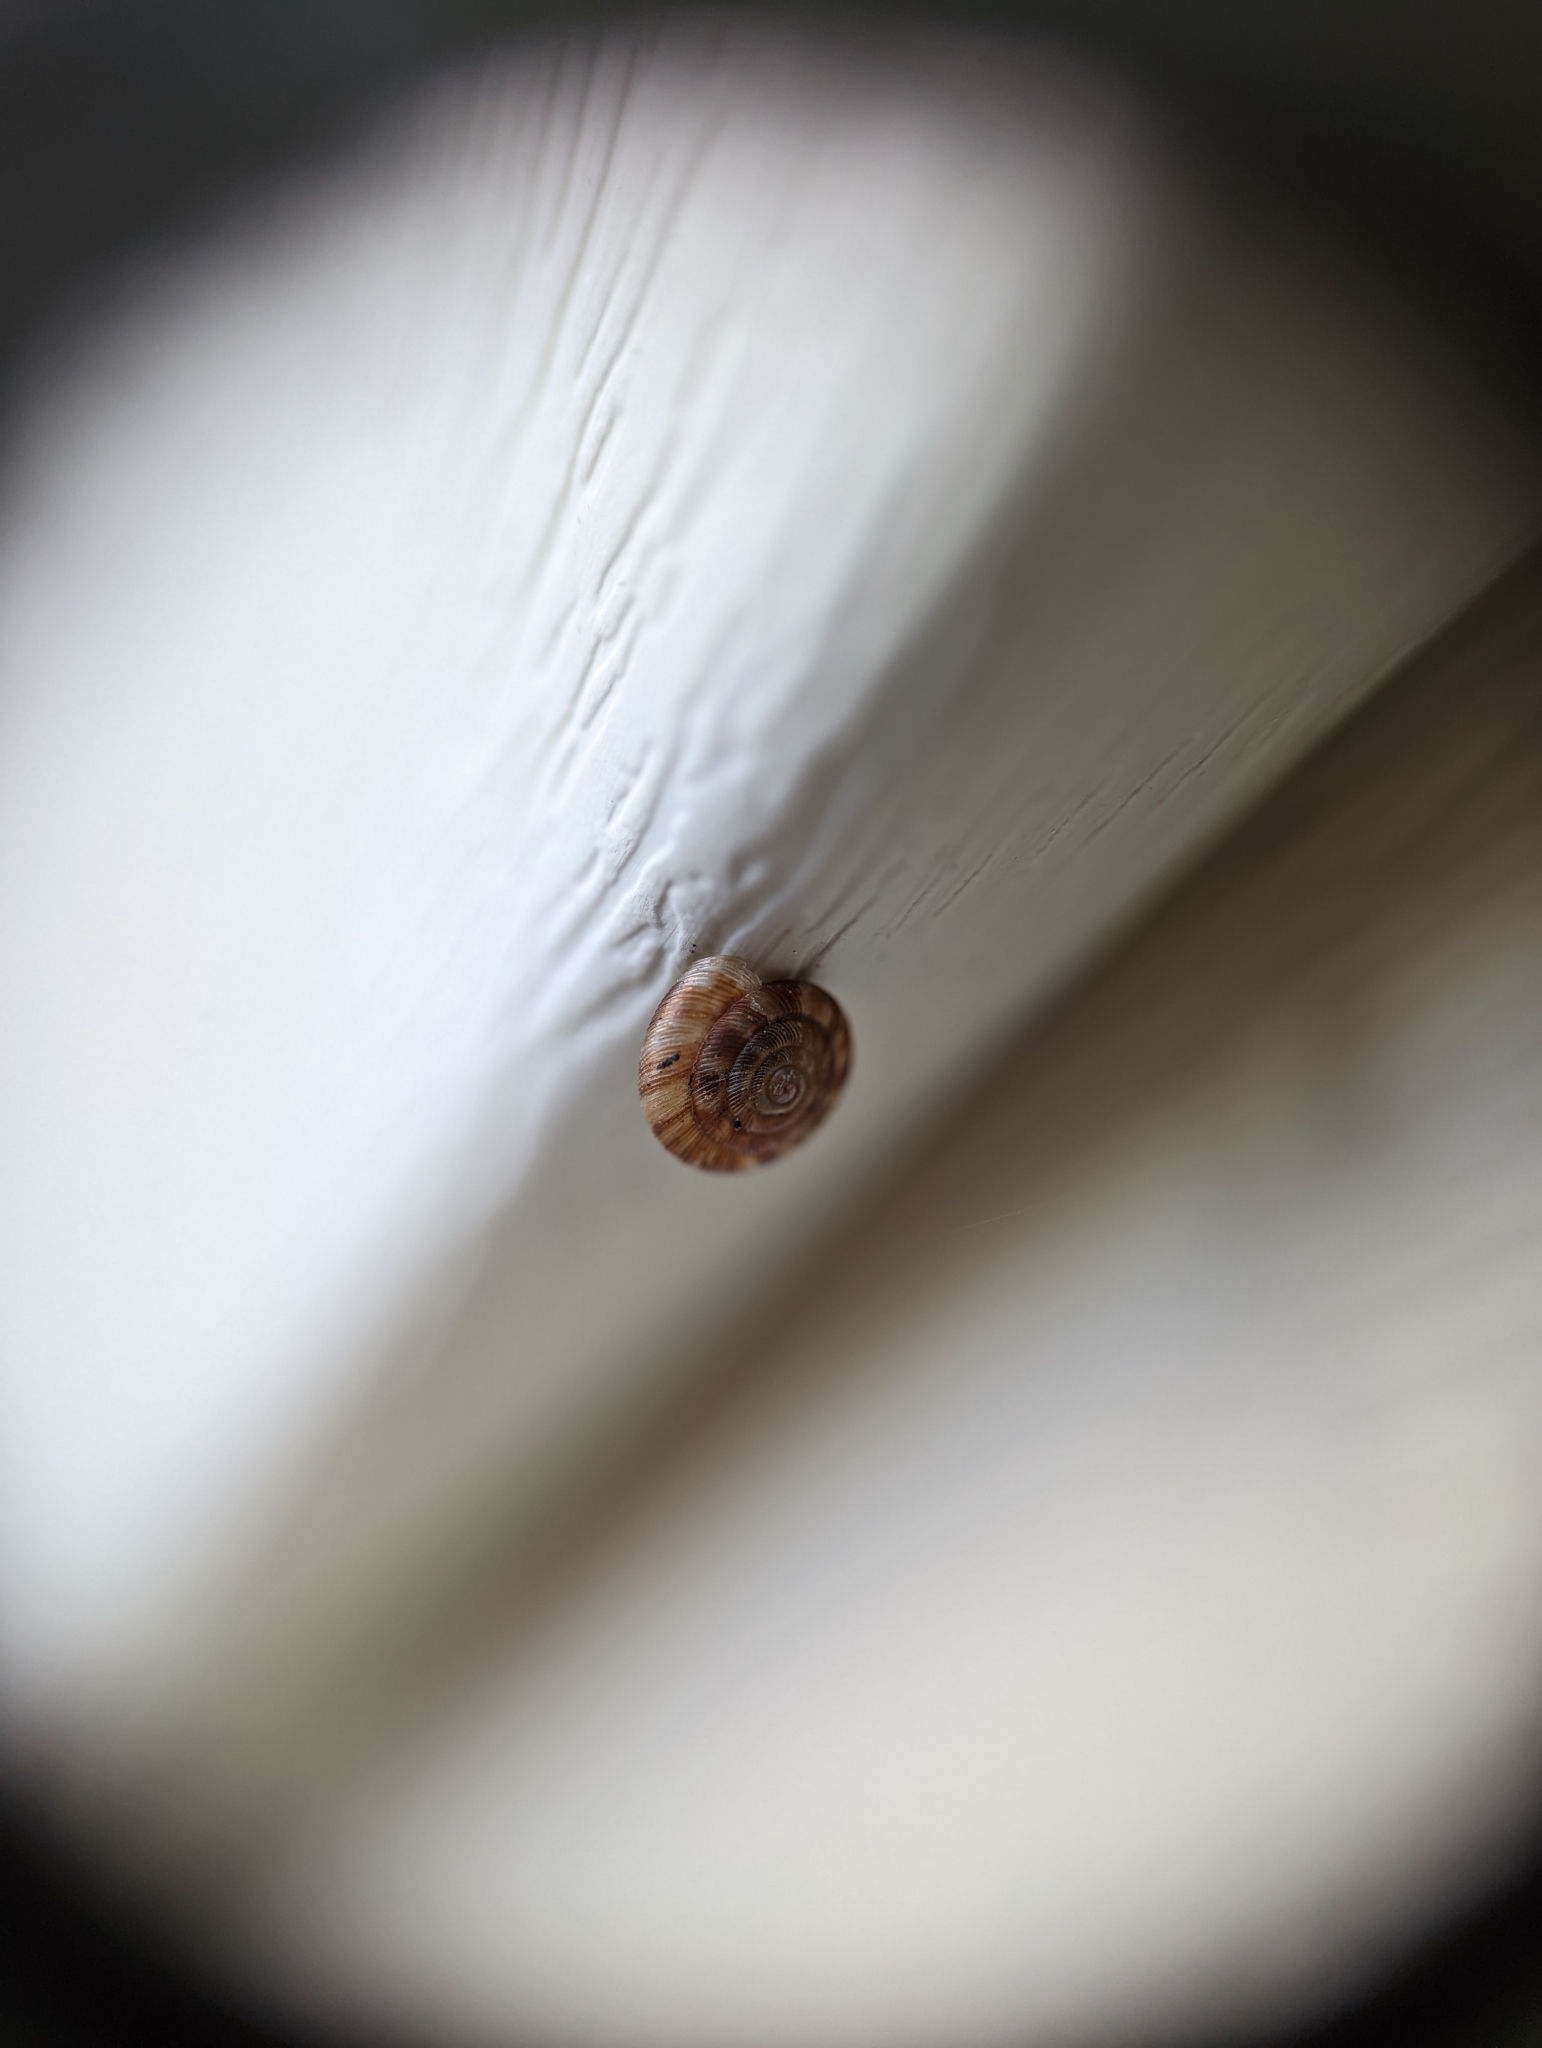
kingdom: Animalia
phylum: Mollusca
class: Gastropoda
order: Stylommatophora
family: Discidae
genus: Discus
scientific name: Discus rotundatus
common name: Rounded snail
